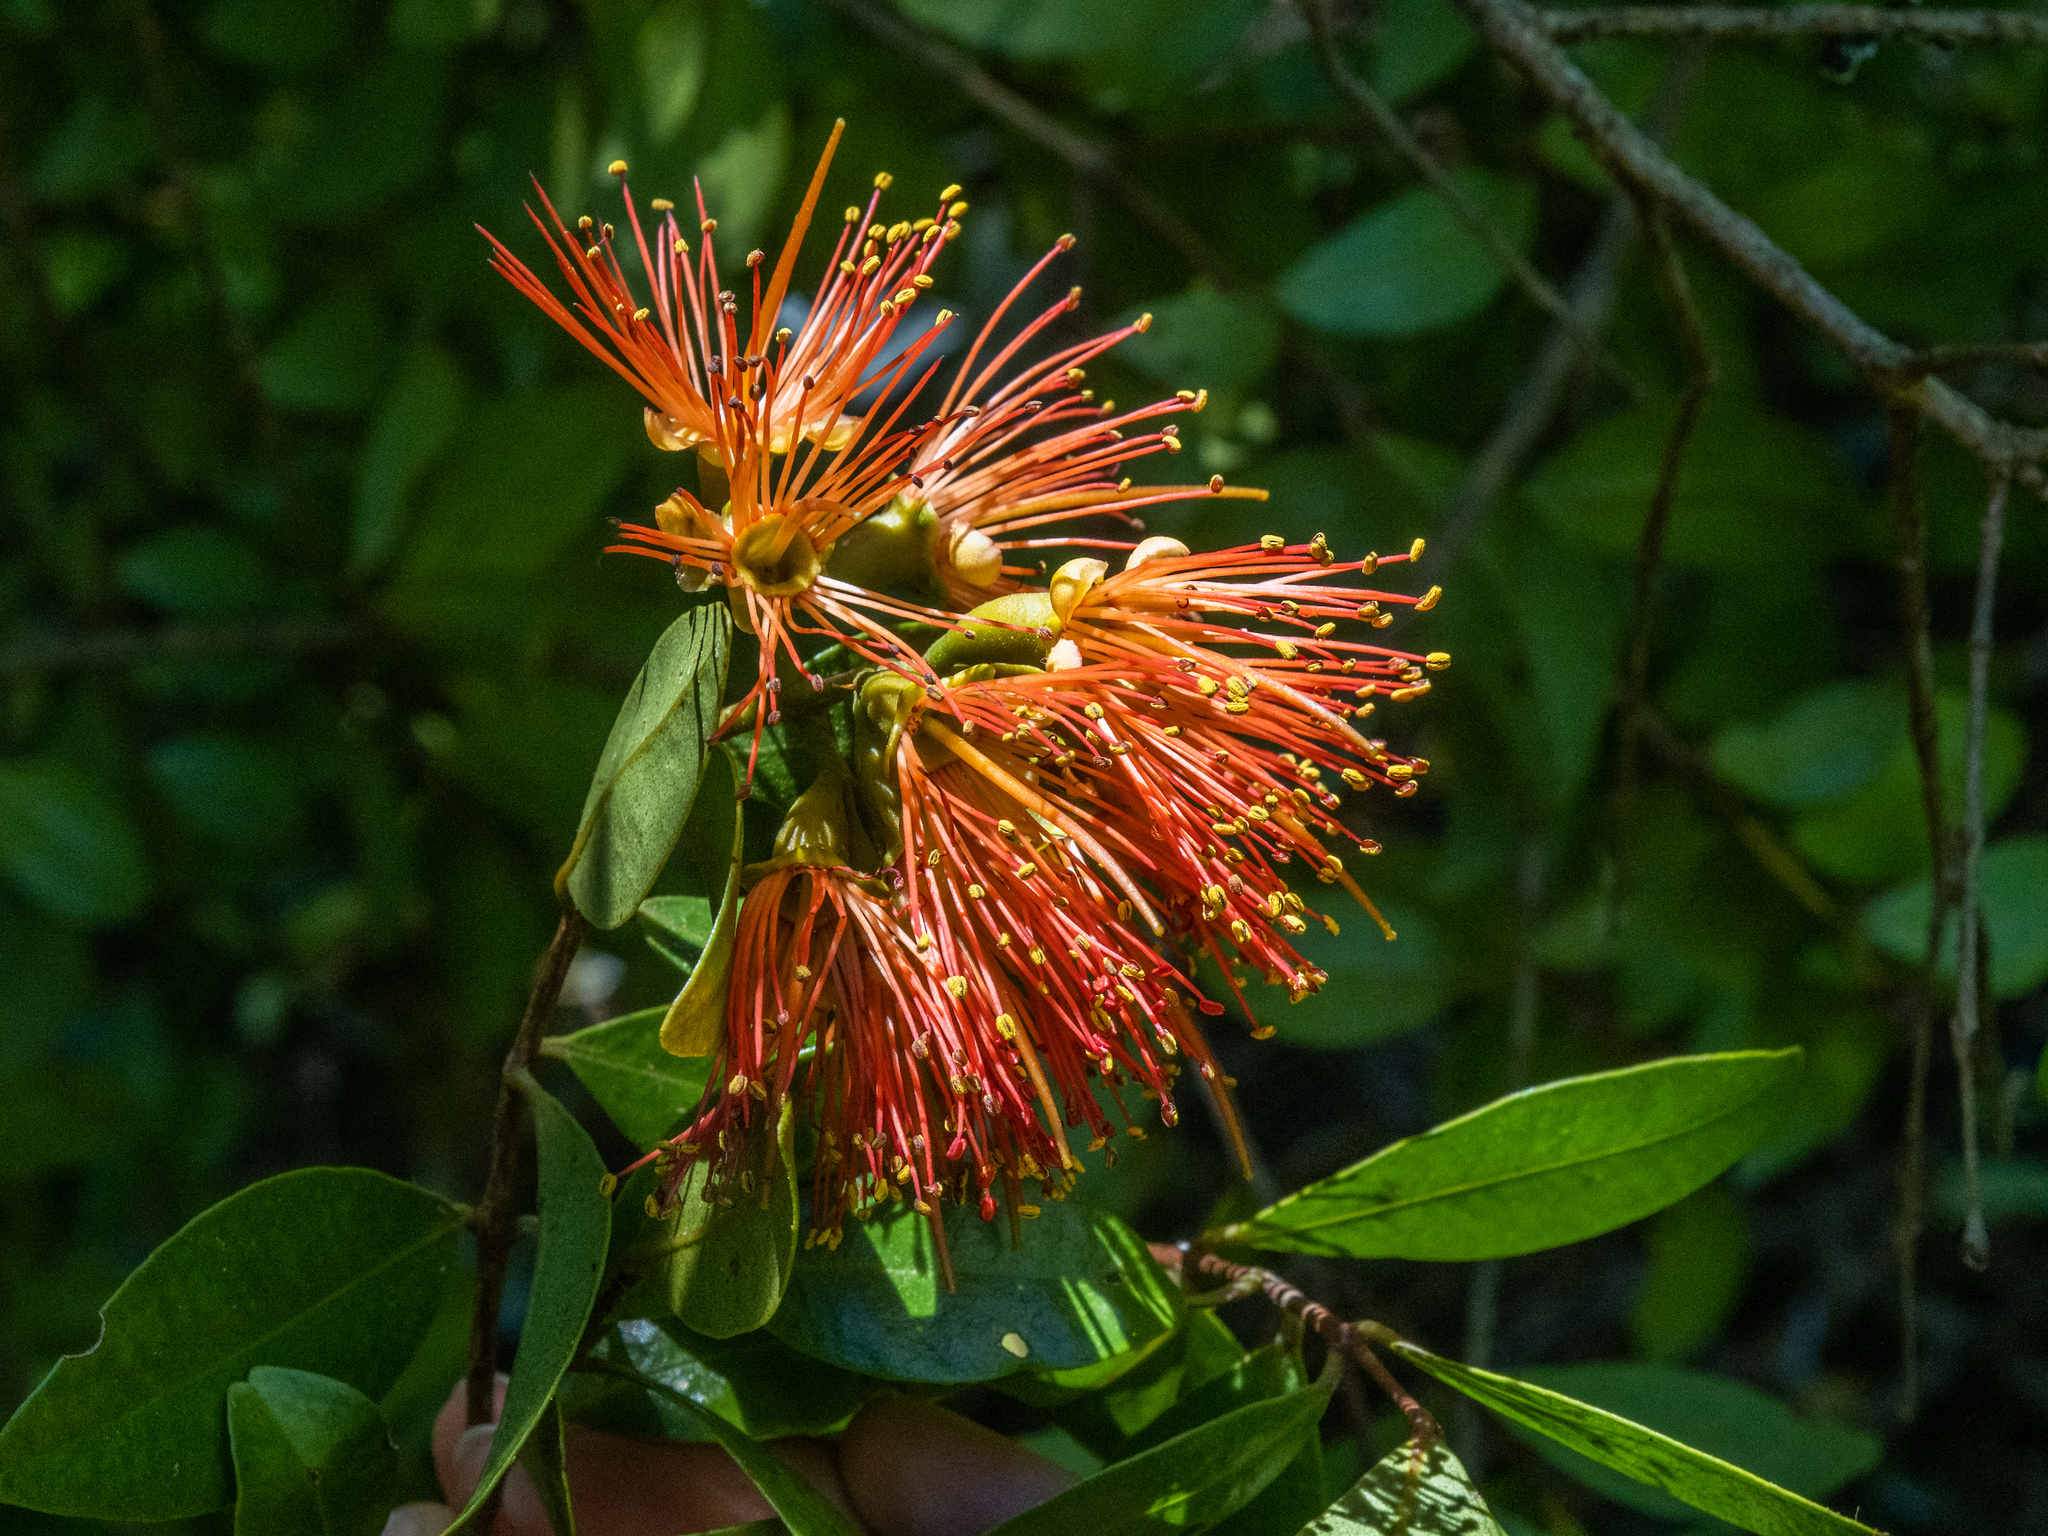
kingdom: Plantae
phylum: Tracheophyta
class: Magnoliopsida
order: Myrtales
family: Myrtaceae
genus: Metrosideros
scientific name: Metrosideros fulgens
